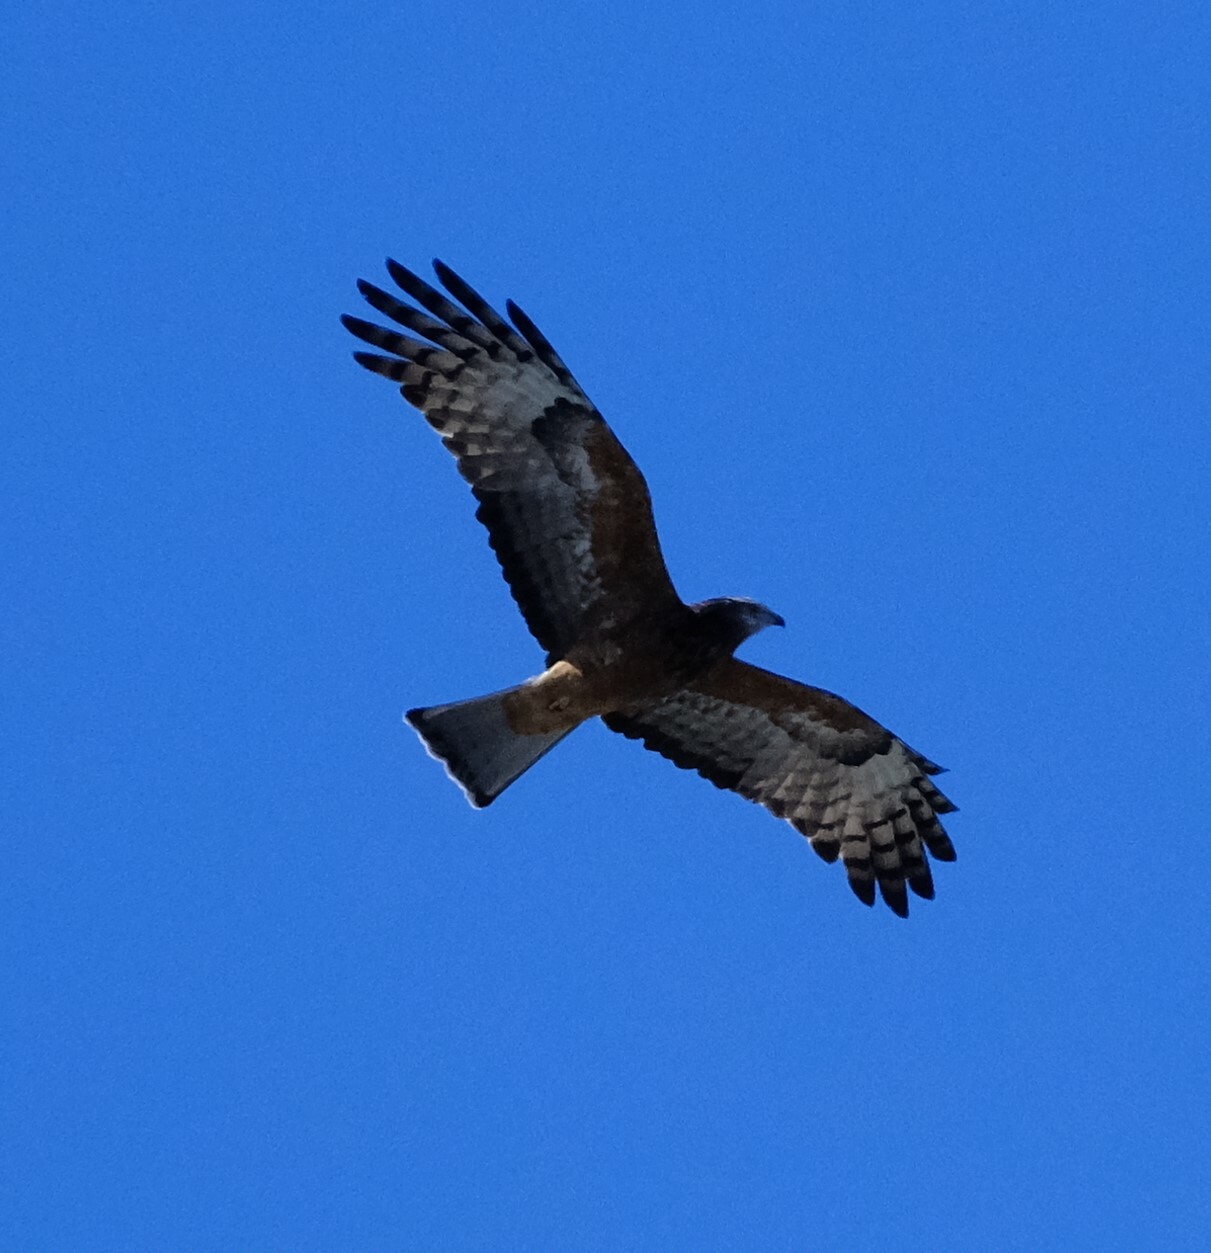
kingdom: Animalia
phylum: Chordata
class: Aves
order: Accipitriformes
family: Accipitridae
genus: Lophoictinia
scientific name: Lophoictinia isura
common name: Square-tailed kite
